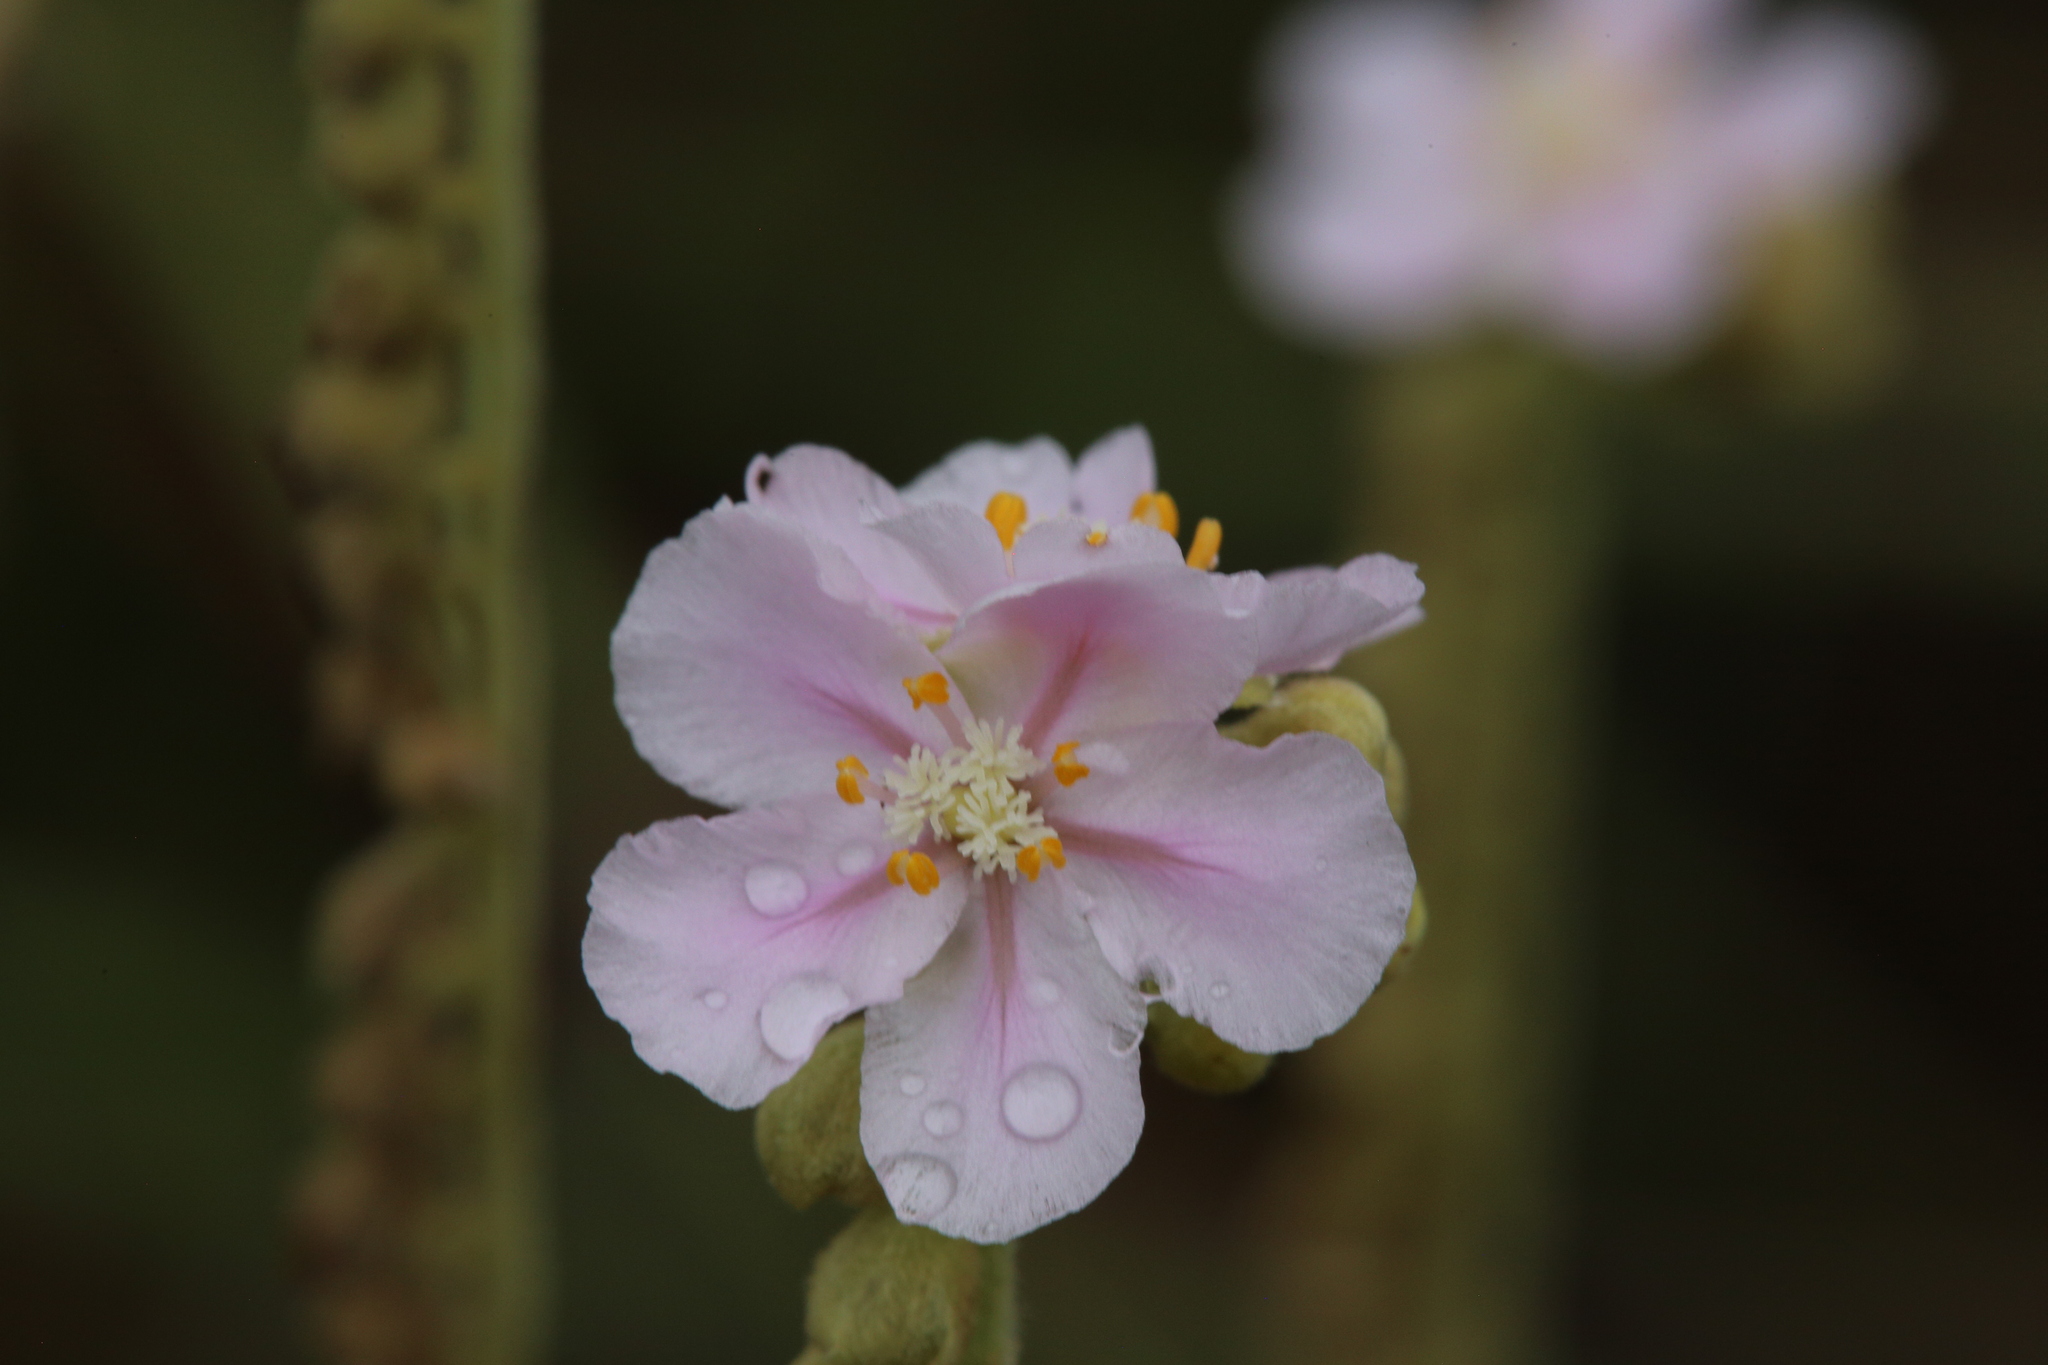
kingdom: Plantae
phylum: Tracheophyta
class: Magnoliopsida
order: Caryophyllales
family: Droseraceae
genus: Drosera
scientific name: Drosera fulva
